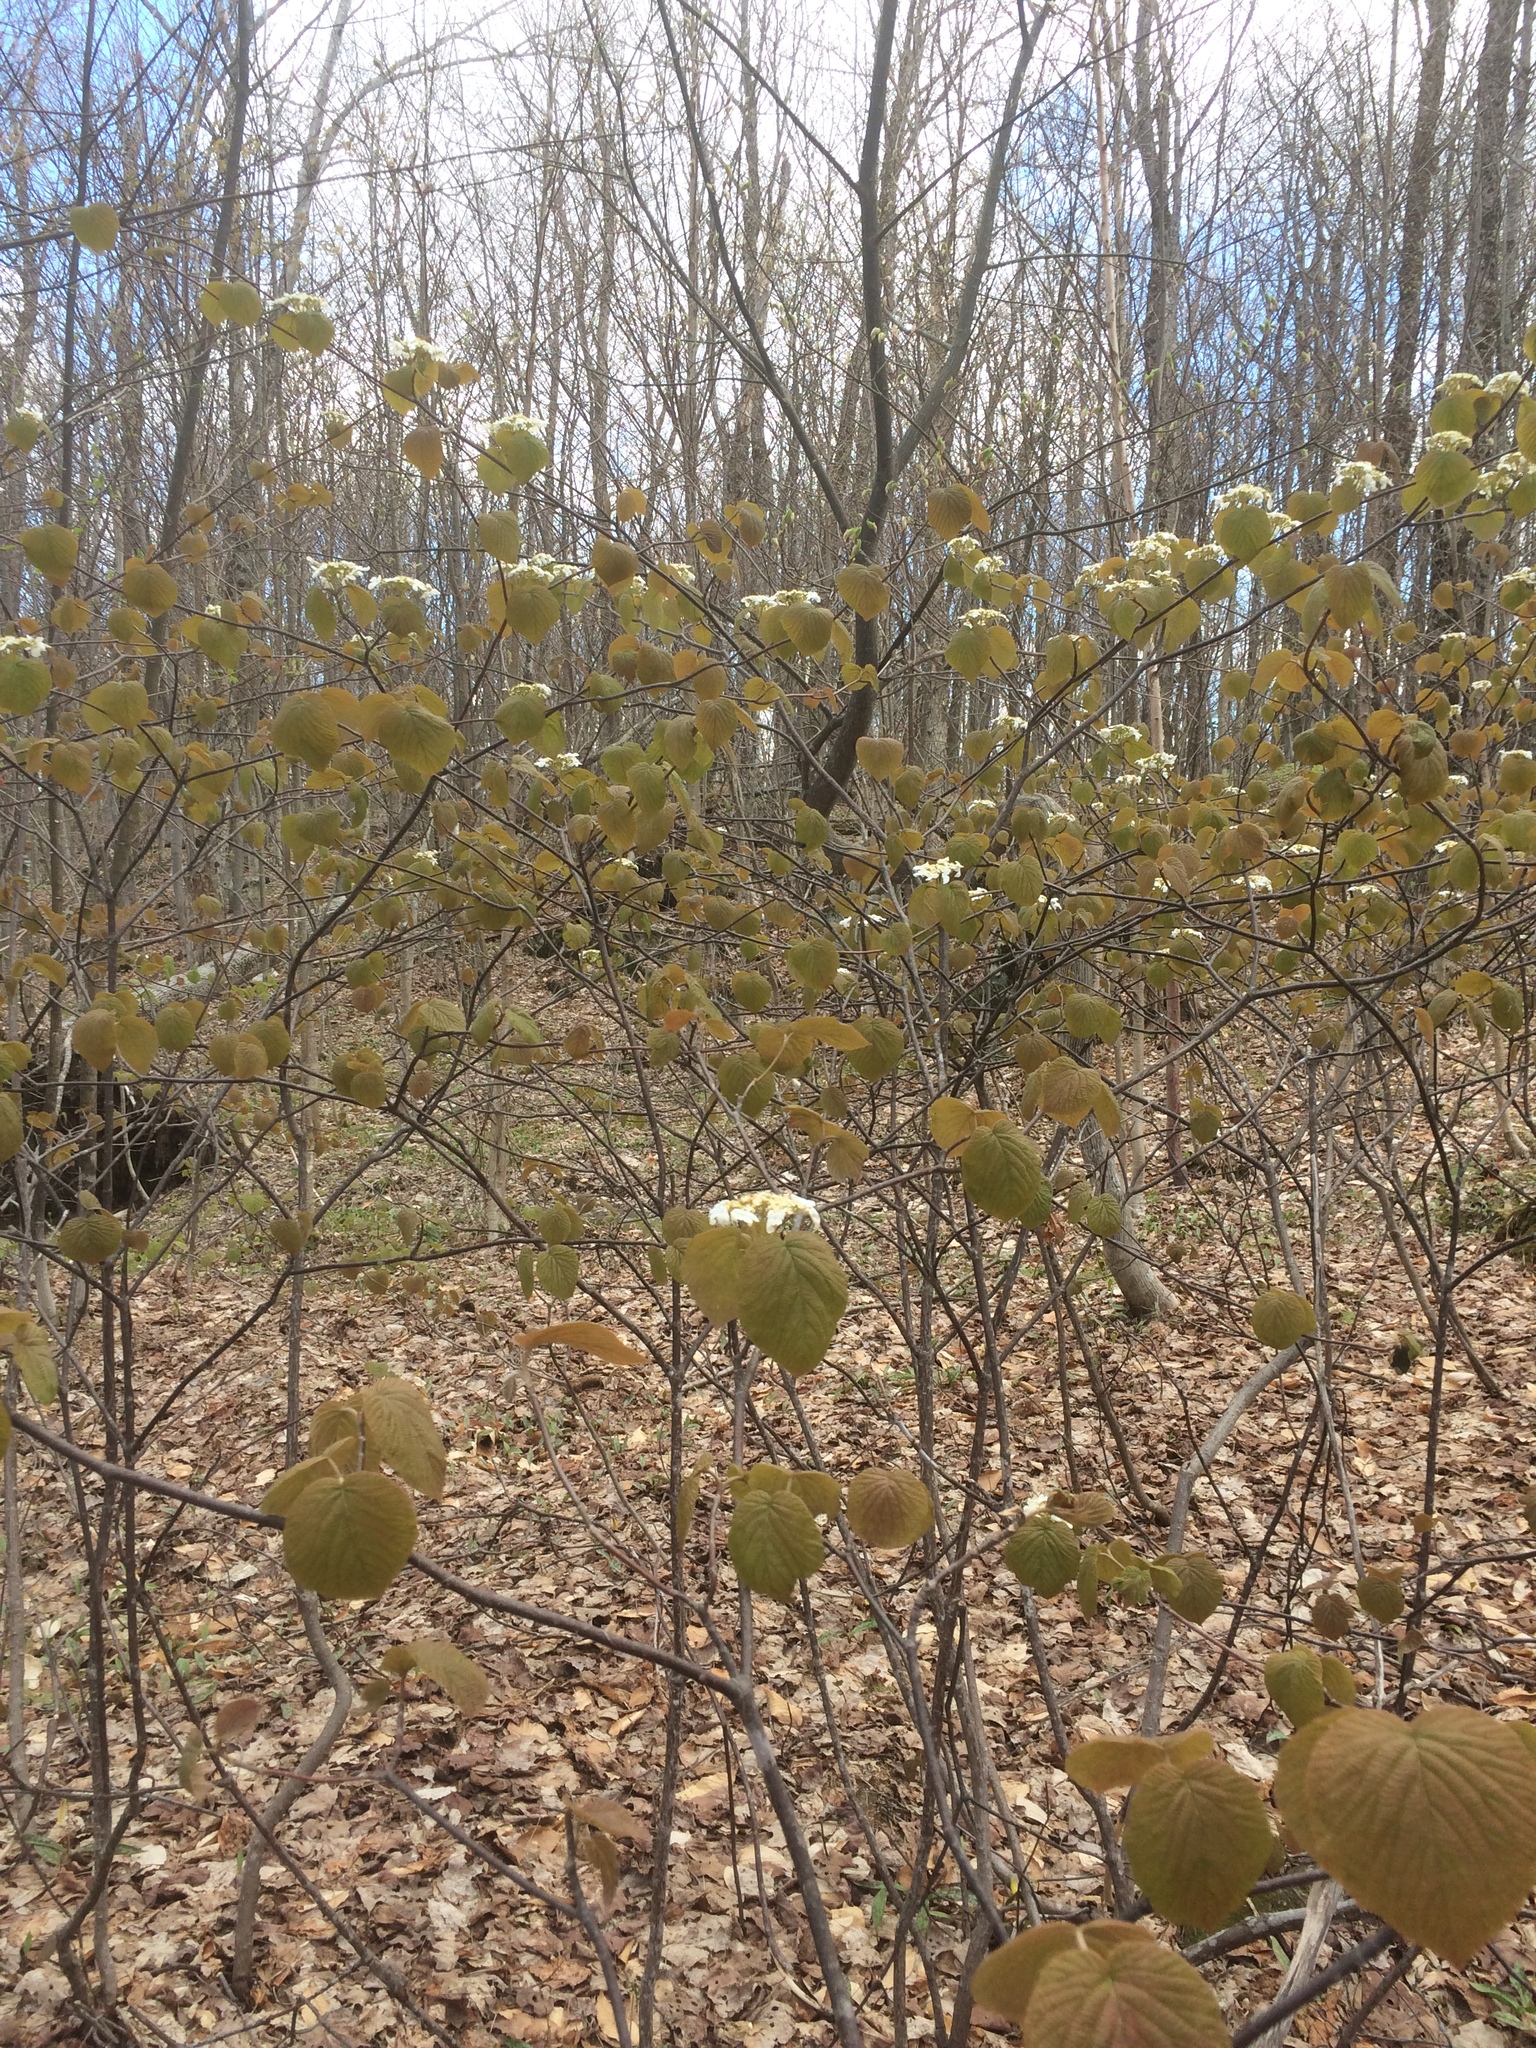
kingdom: Plantae
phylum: Tracheophyta
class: Magnoliopsida
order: Dipsacales
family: Viburnaceae
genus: Viburnum
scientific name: Viburnum lantanoides
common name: Hobblebush
